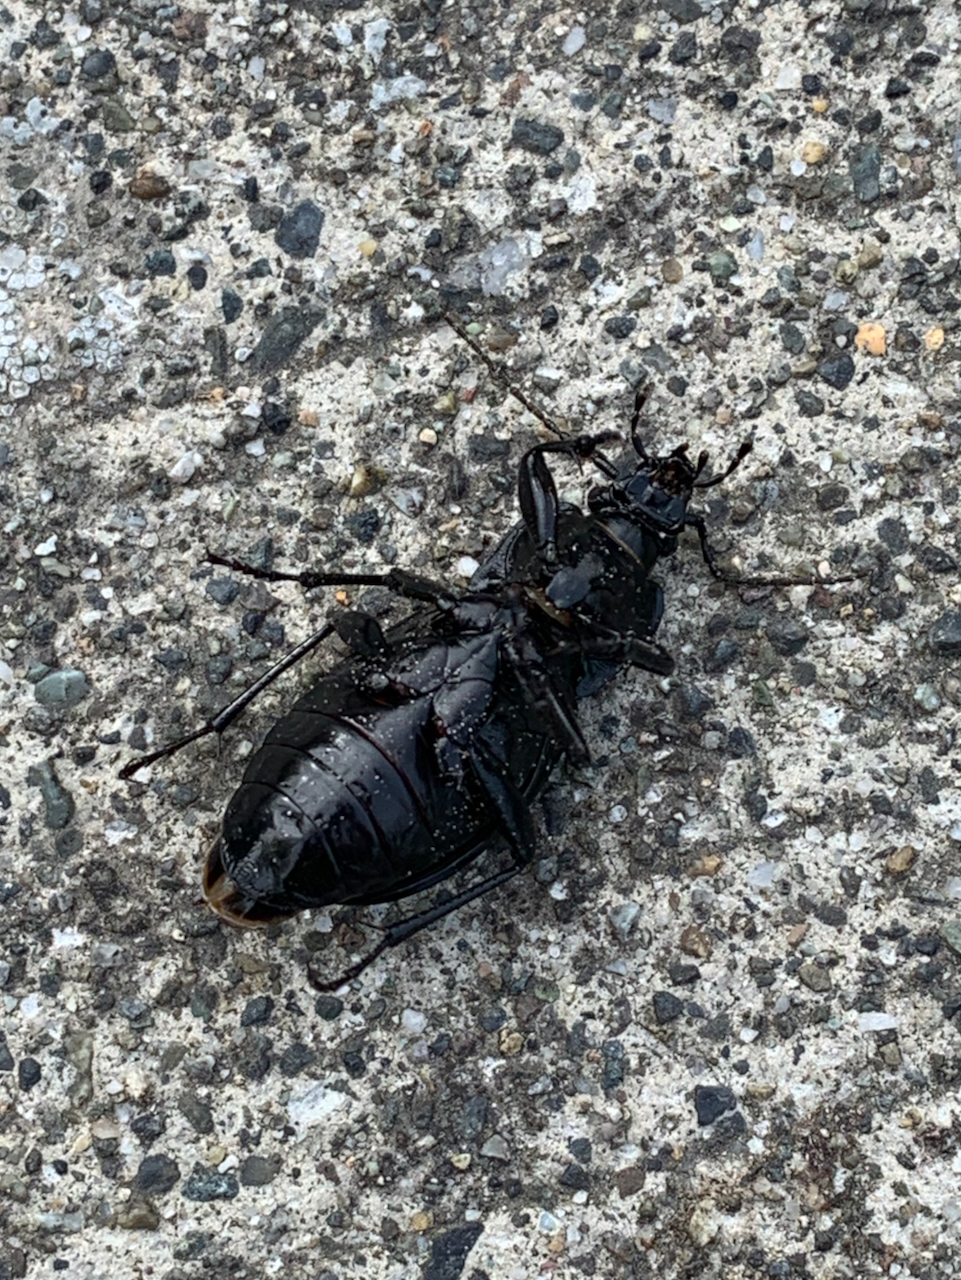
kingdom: Animalia
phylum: Arthropoda
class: Insecta
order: Coleoptera
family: Carabidae
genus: Carabus
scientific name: Carabus nemoralis
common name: European ground beetle
